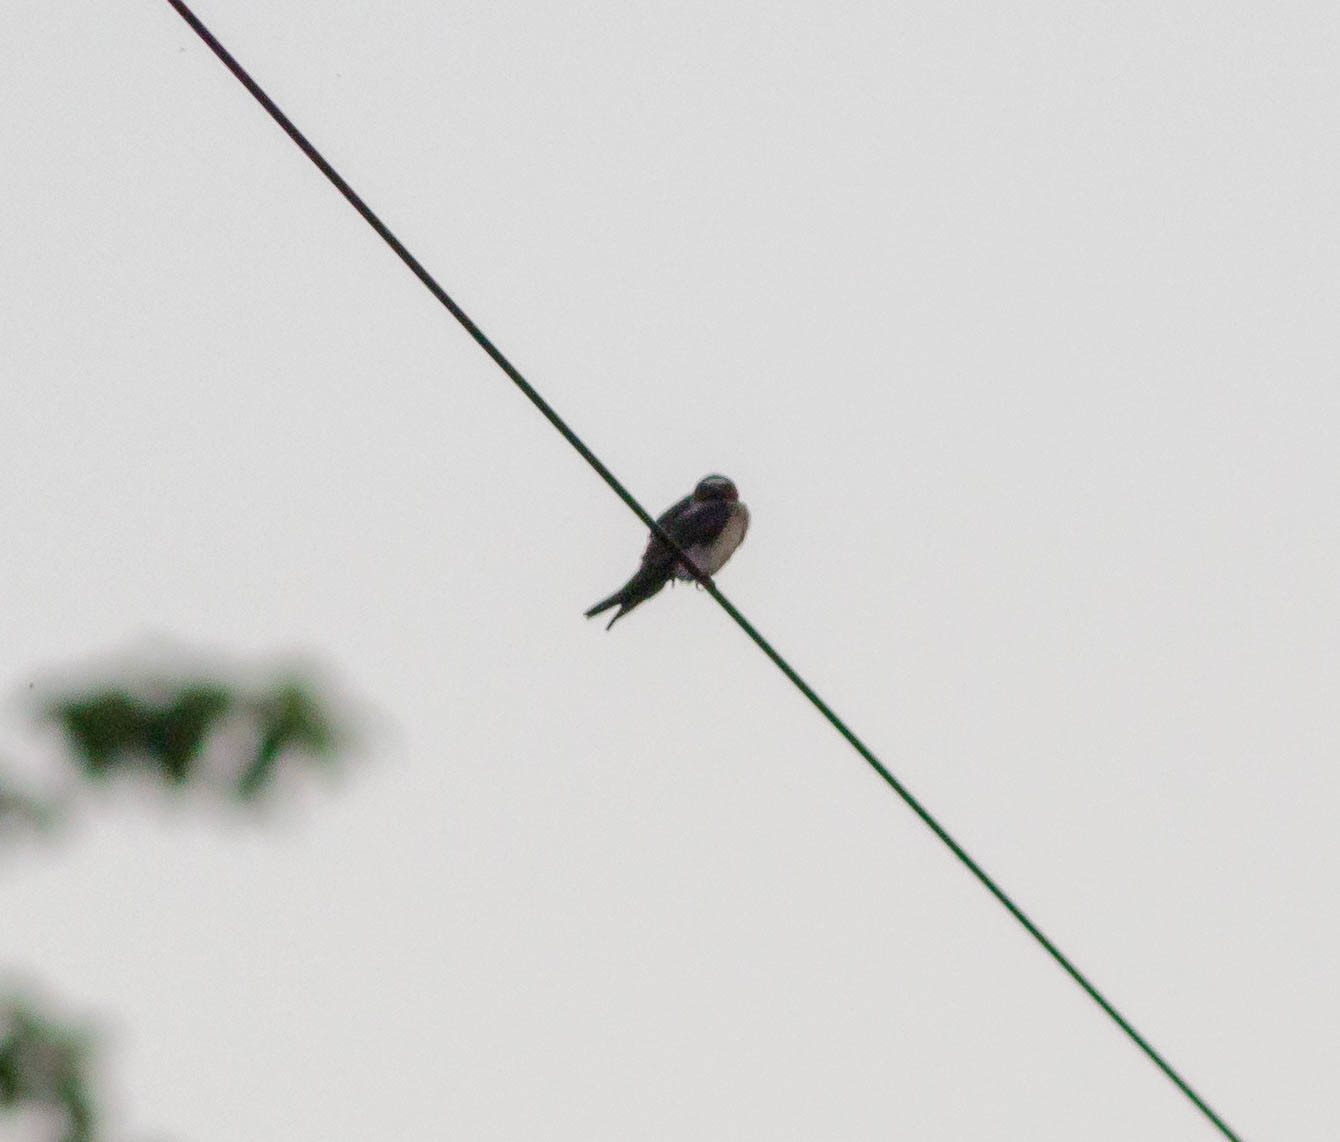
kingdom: Animalia
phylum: Chordata
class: Aves
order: Passeriformes
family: Hirundinidae
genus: Hirundo
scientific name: Hirundo rustica
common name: Barn swallow
